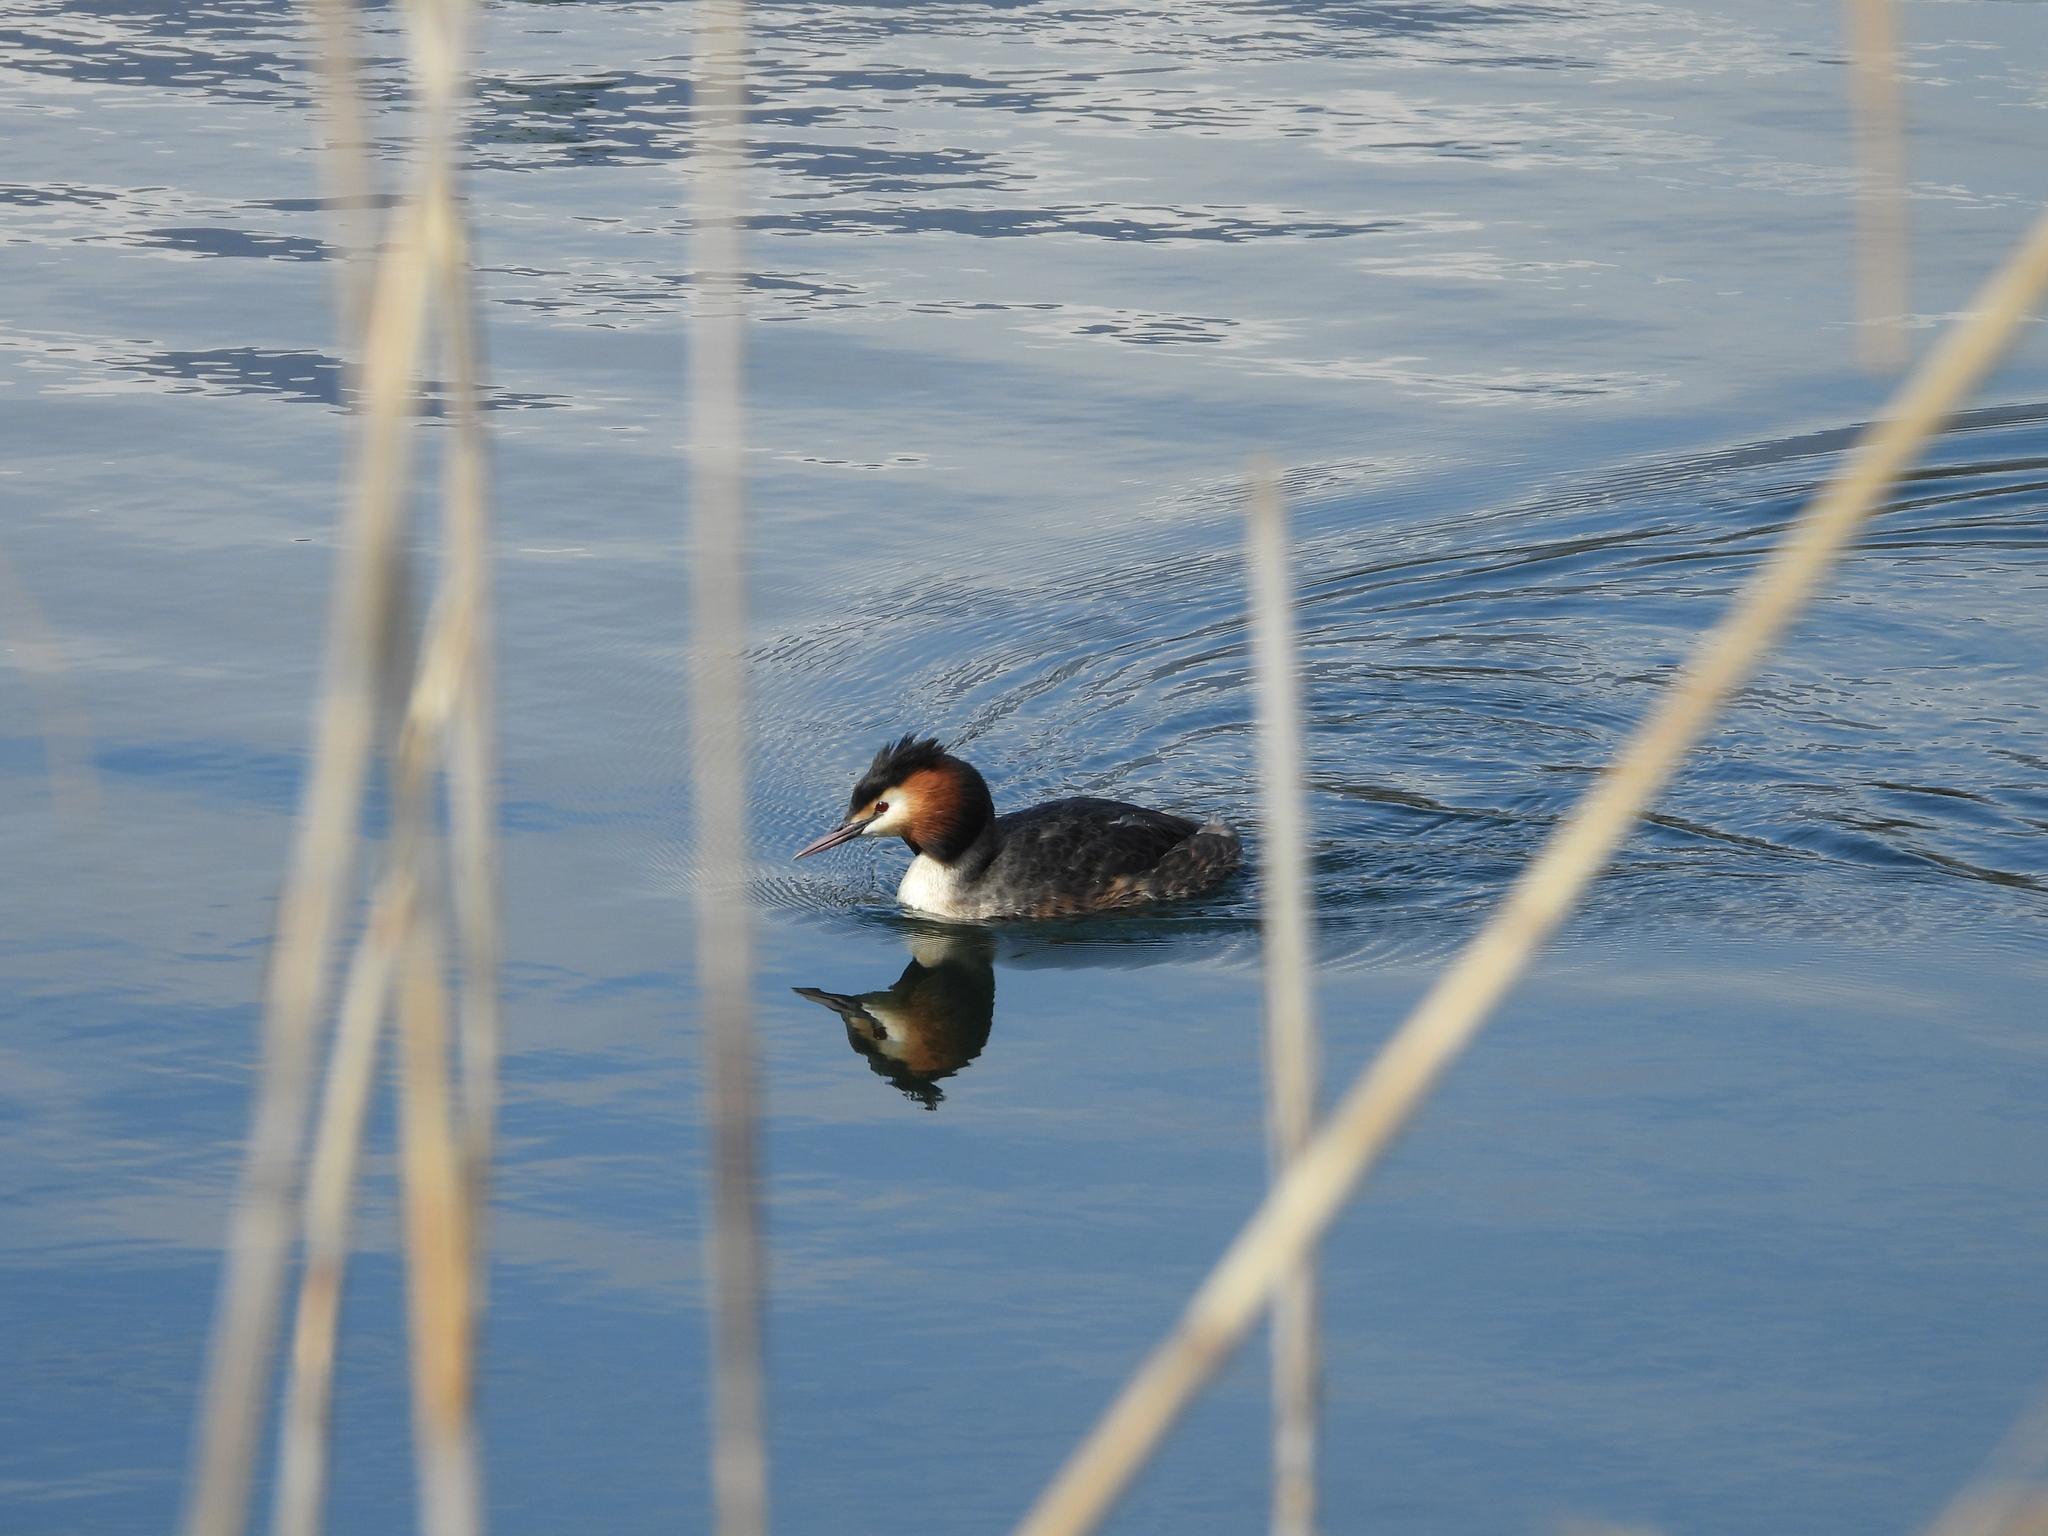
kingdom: Animalia
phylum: Chordata
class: Aves
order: Podicipediformes
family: Podicipedidae
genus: Podiceps
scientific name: Podiceps cristatus
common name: Great crested grebe
